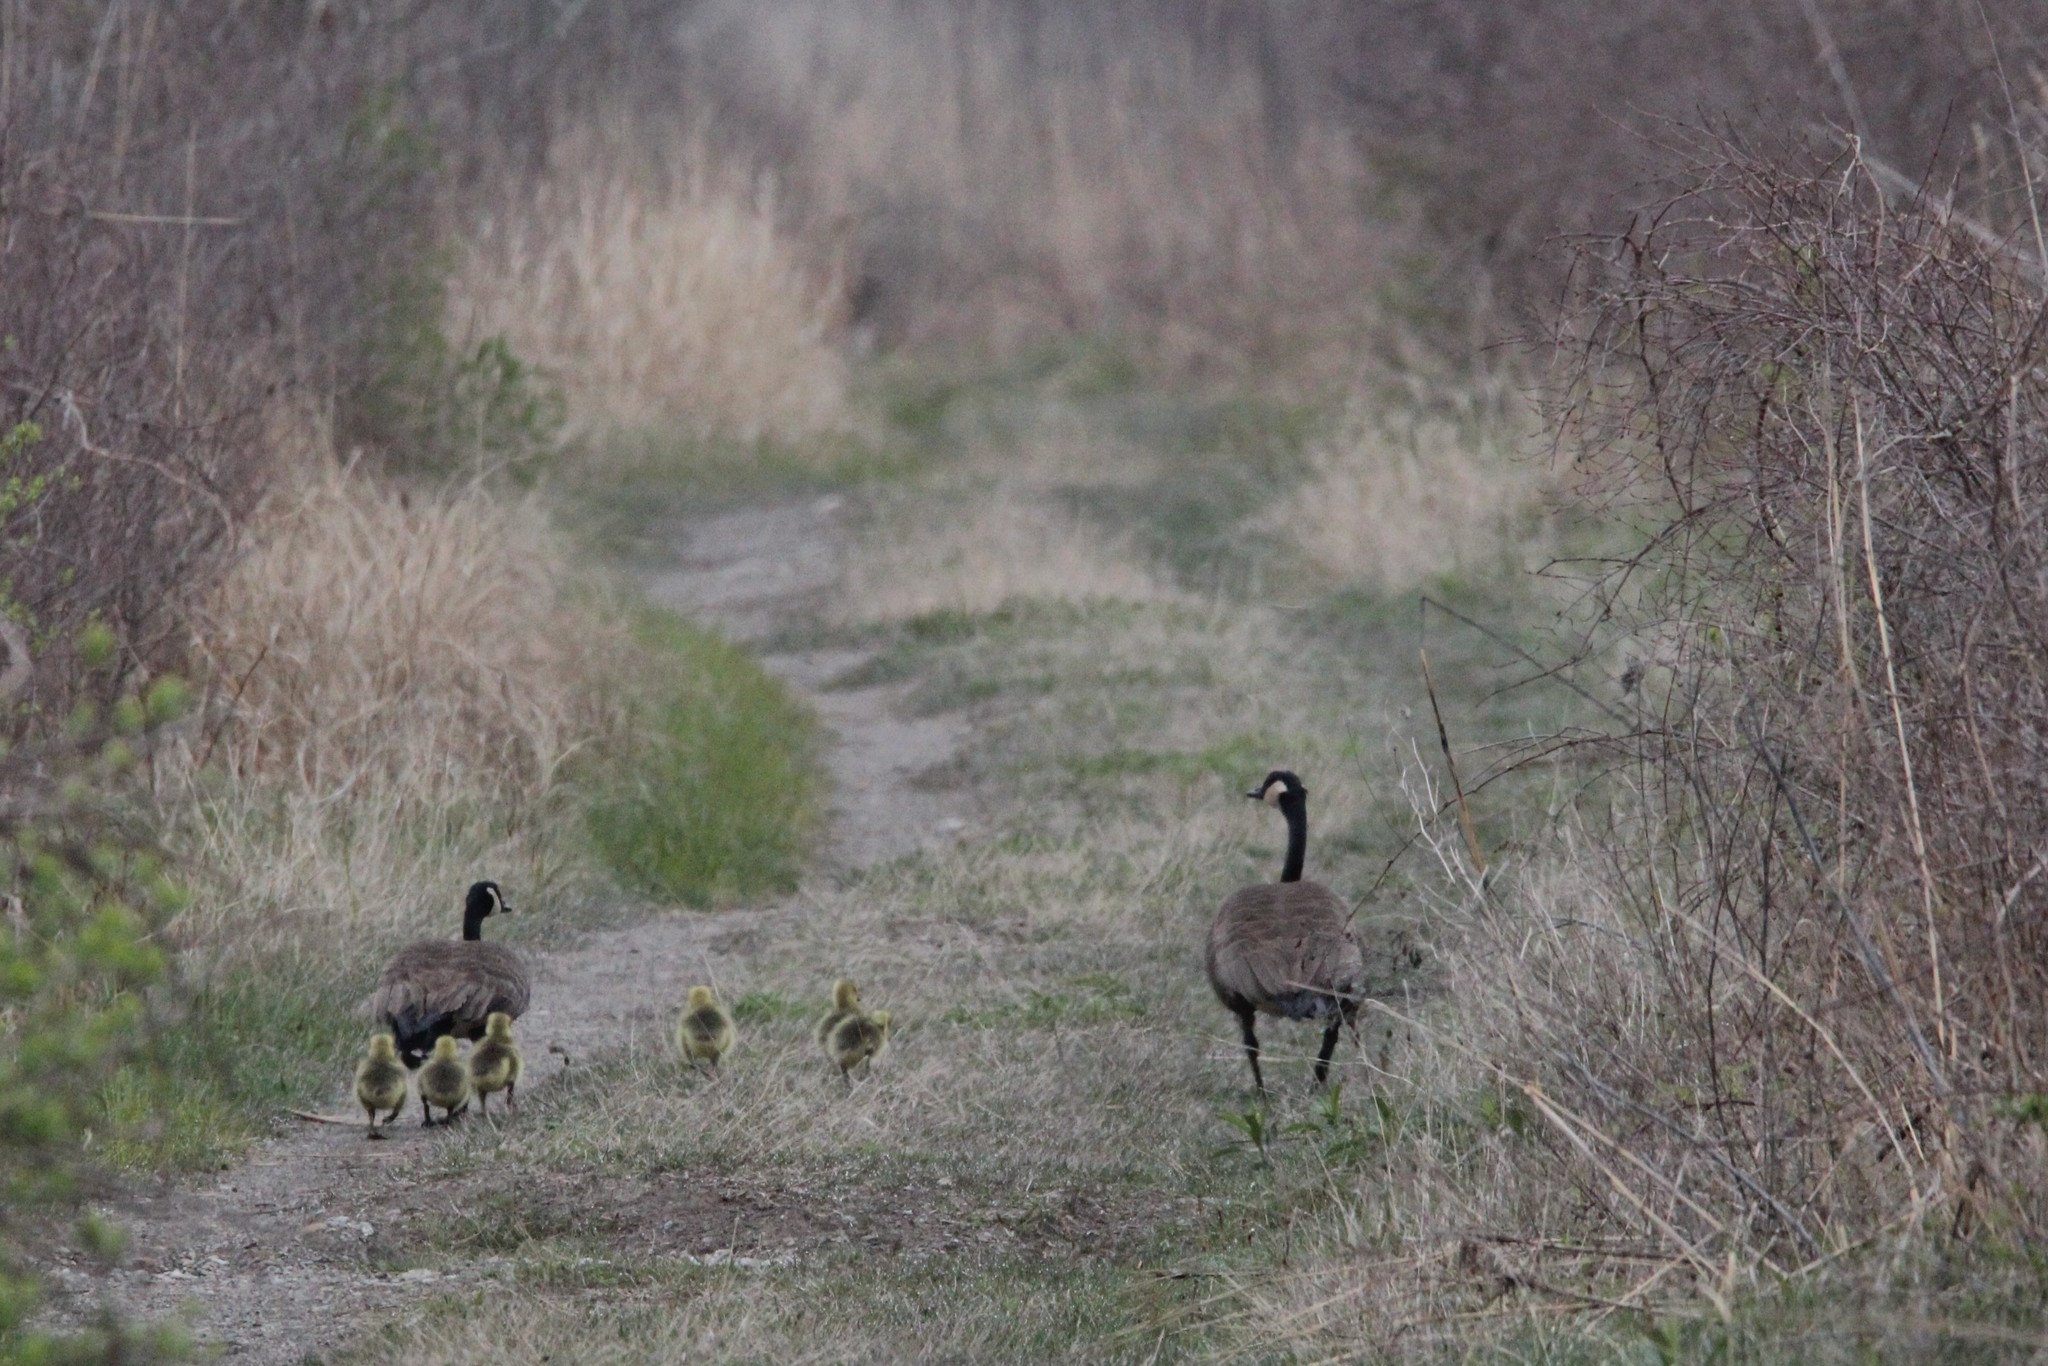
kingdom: Animalia
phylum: Chordata
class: Aves
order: Anseriformes
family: Anatidae
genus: Branta
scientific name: Branta canadensis
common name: Canada goose
